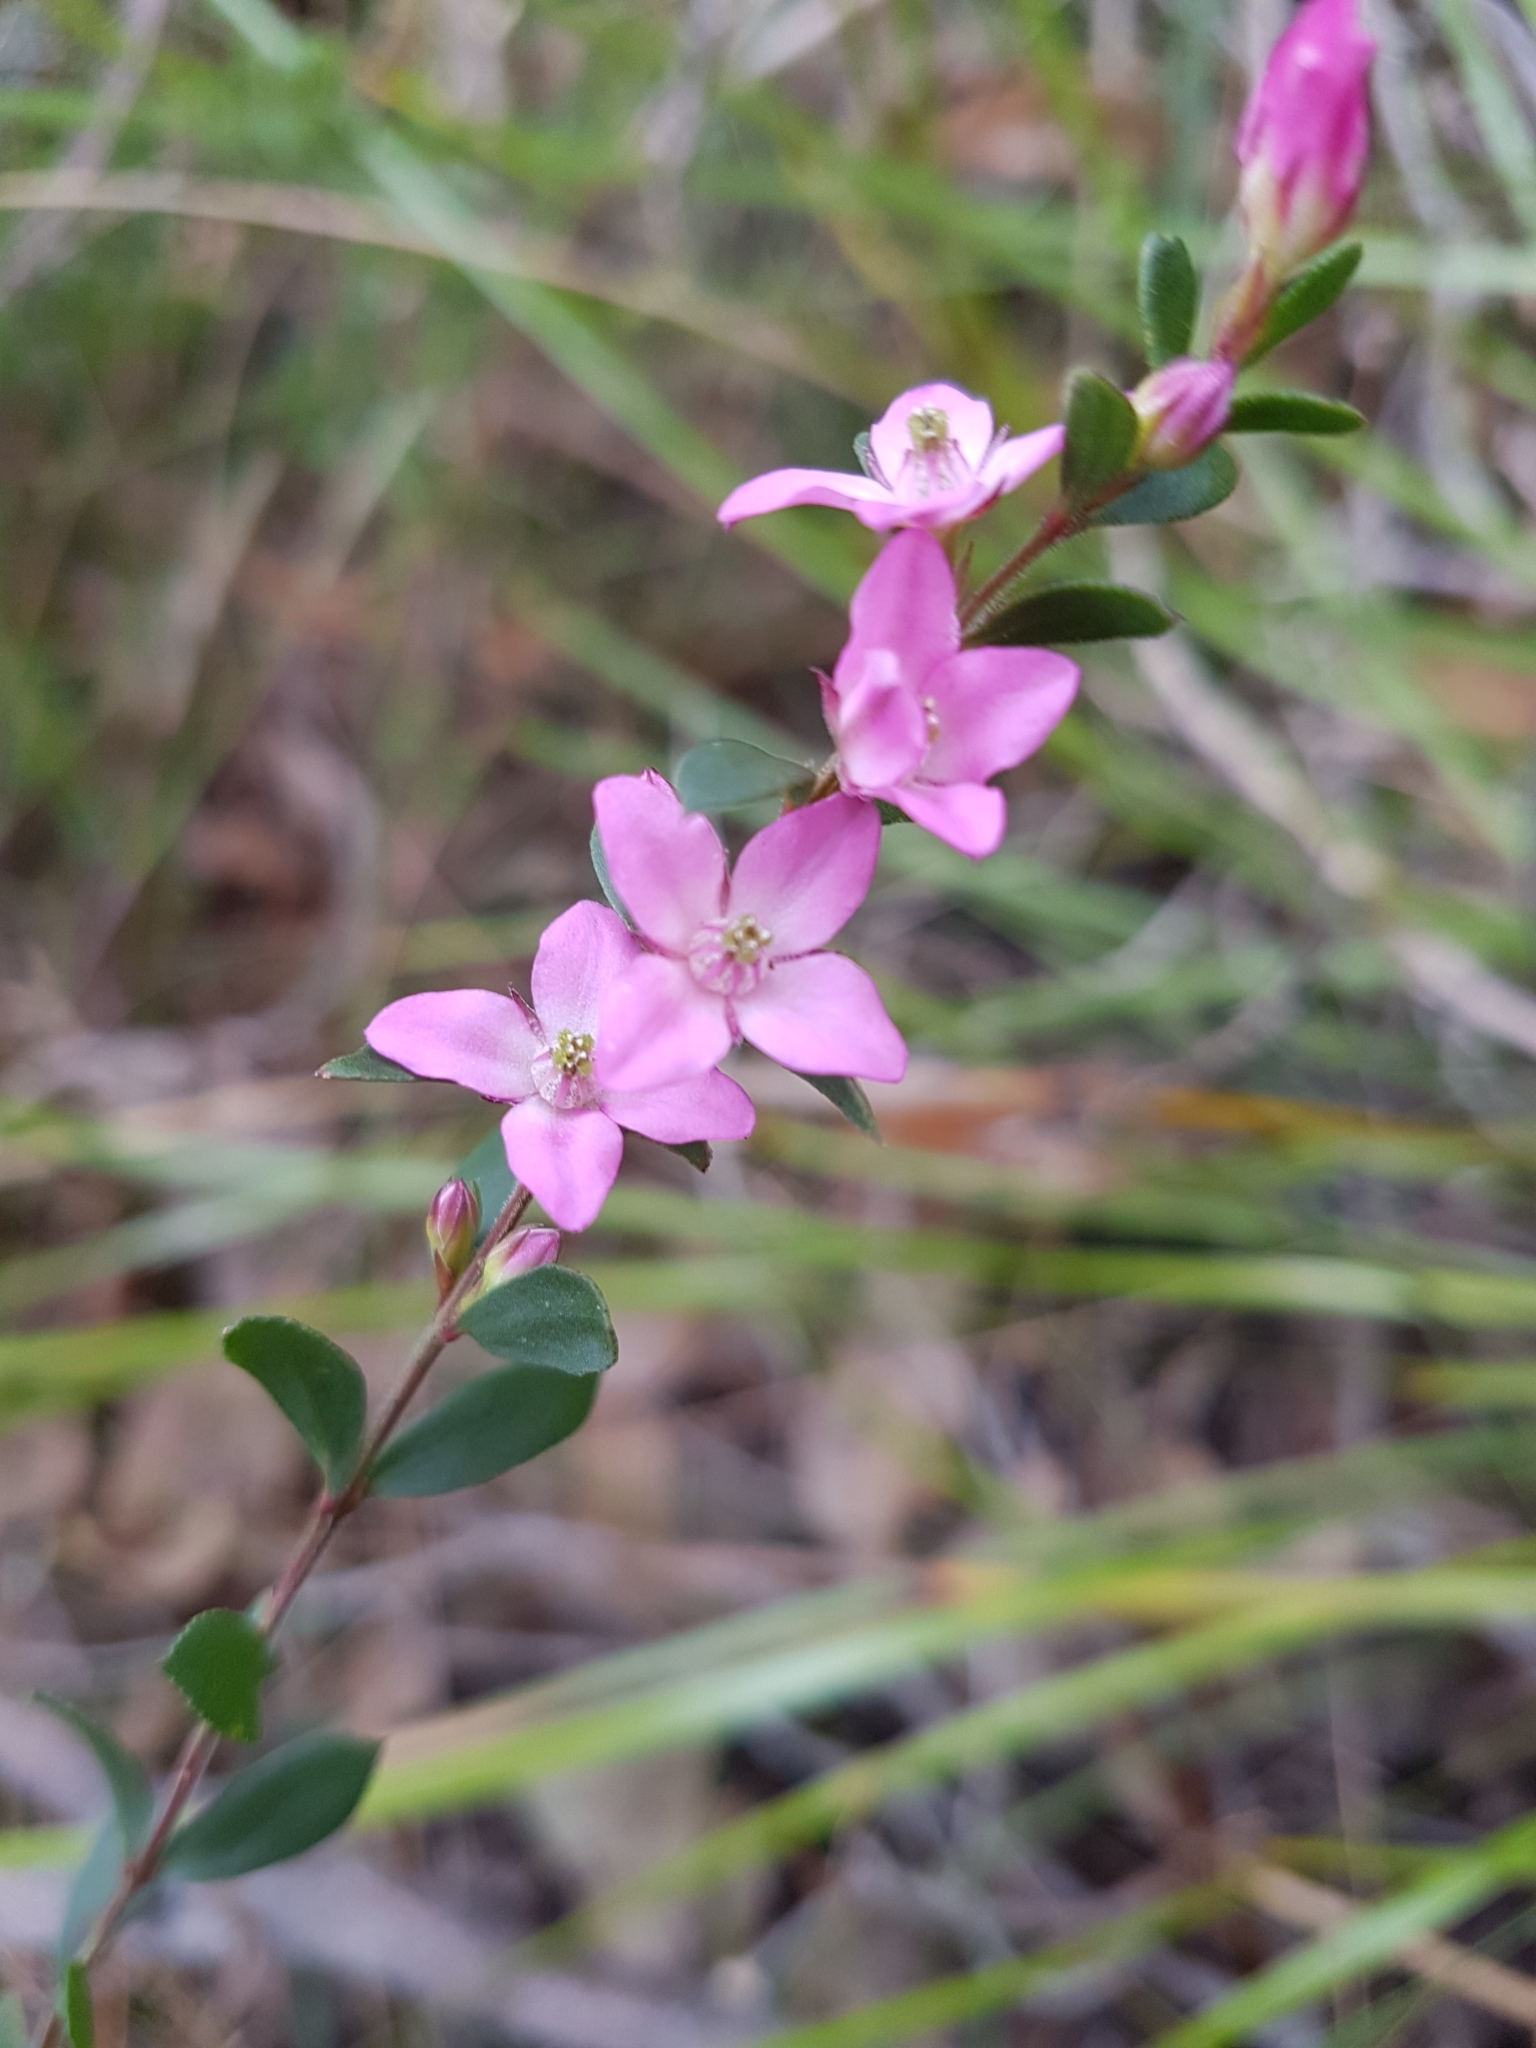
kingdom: Plantae
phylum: Tracheophyta
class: Magnoliopsida
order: Sapindales
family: Rutaceae
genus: Boronia
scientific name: Boronia crenulata
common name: Aniseed boronia
